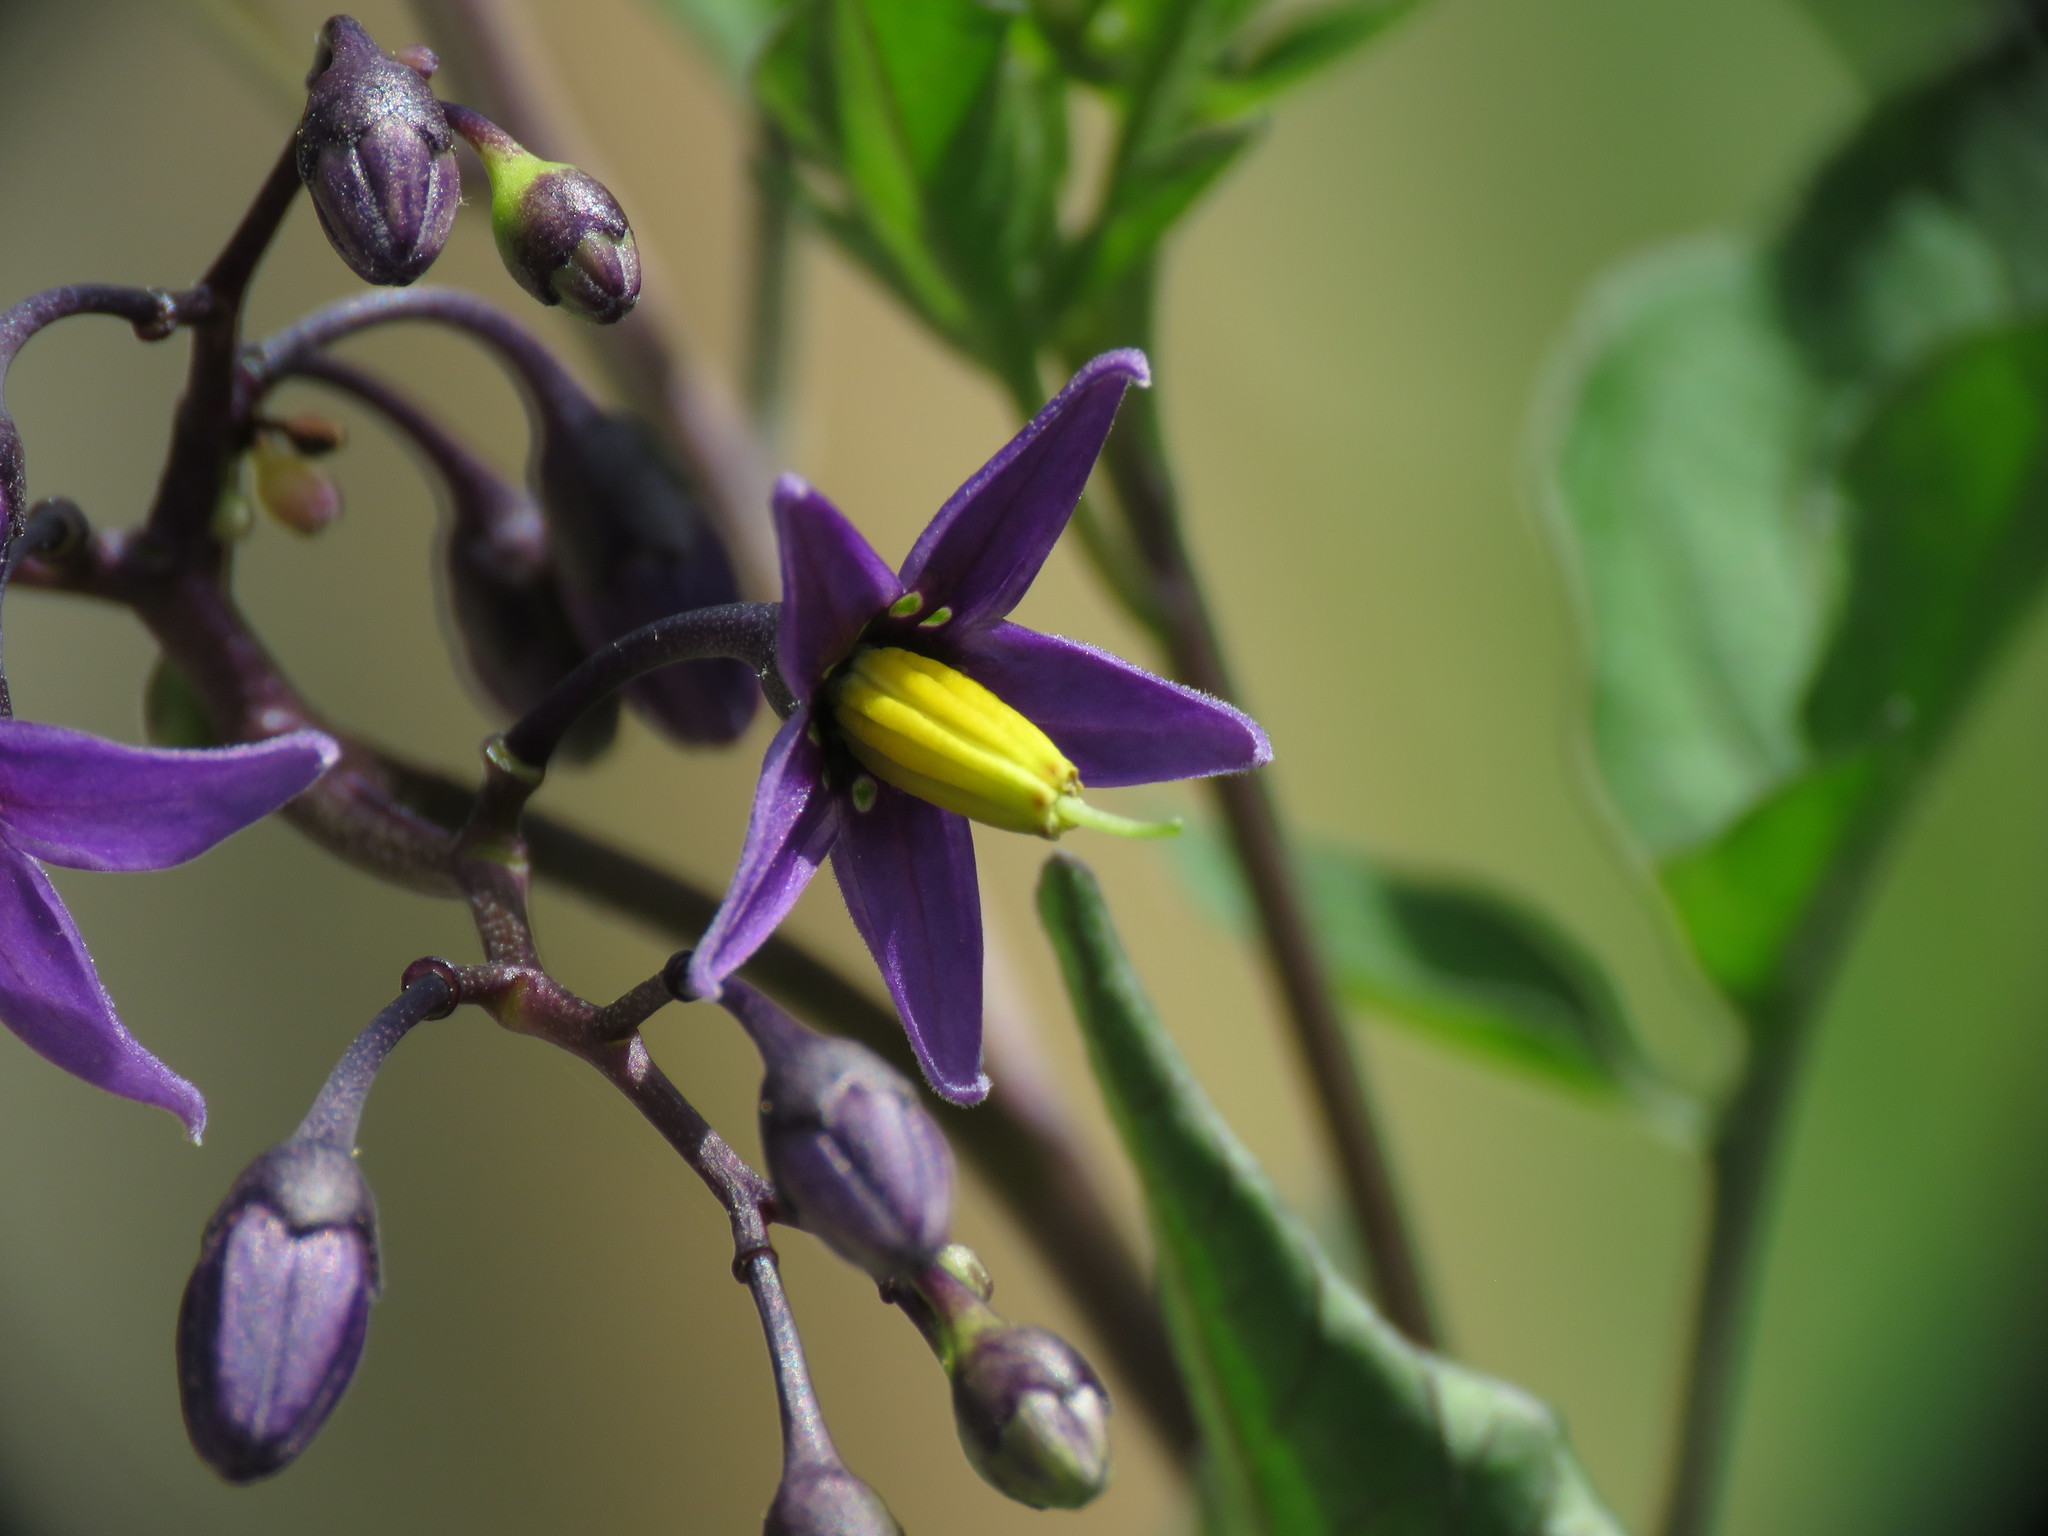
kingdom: Plantae
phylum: Tracheophyta
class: Magnoliopsida
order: Solanales
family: Solanaceae
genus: Solanum
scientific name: Solanum dulcamara
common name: Climbing nightshade
